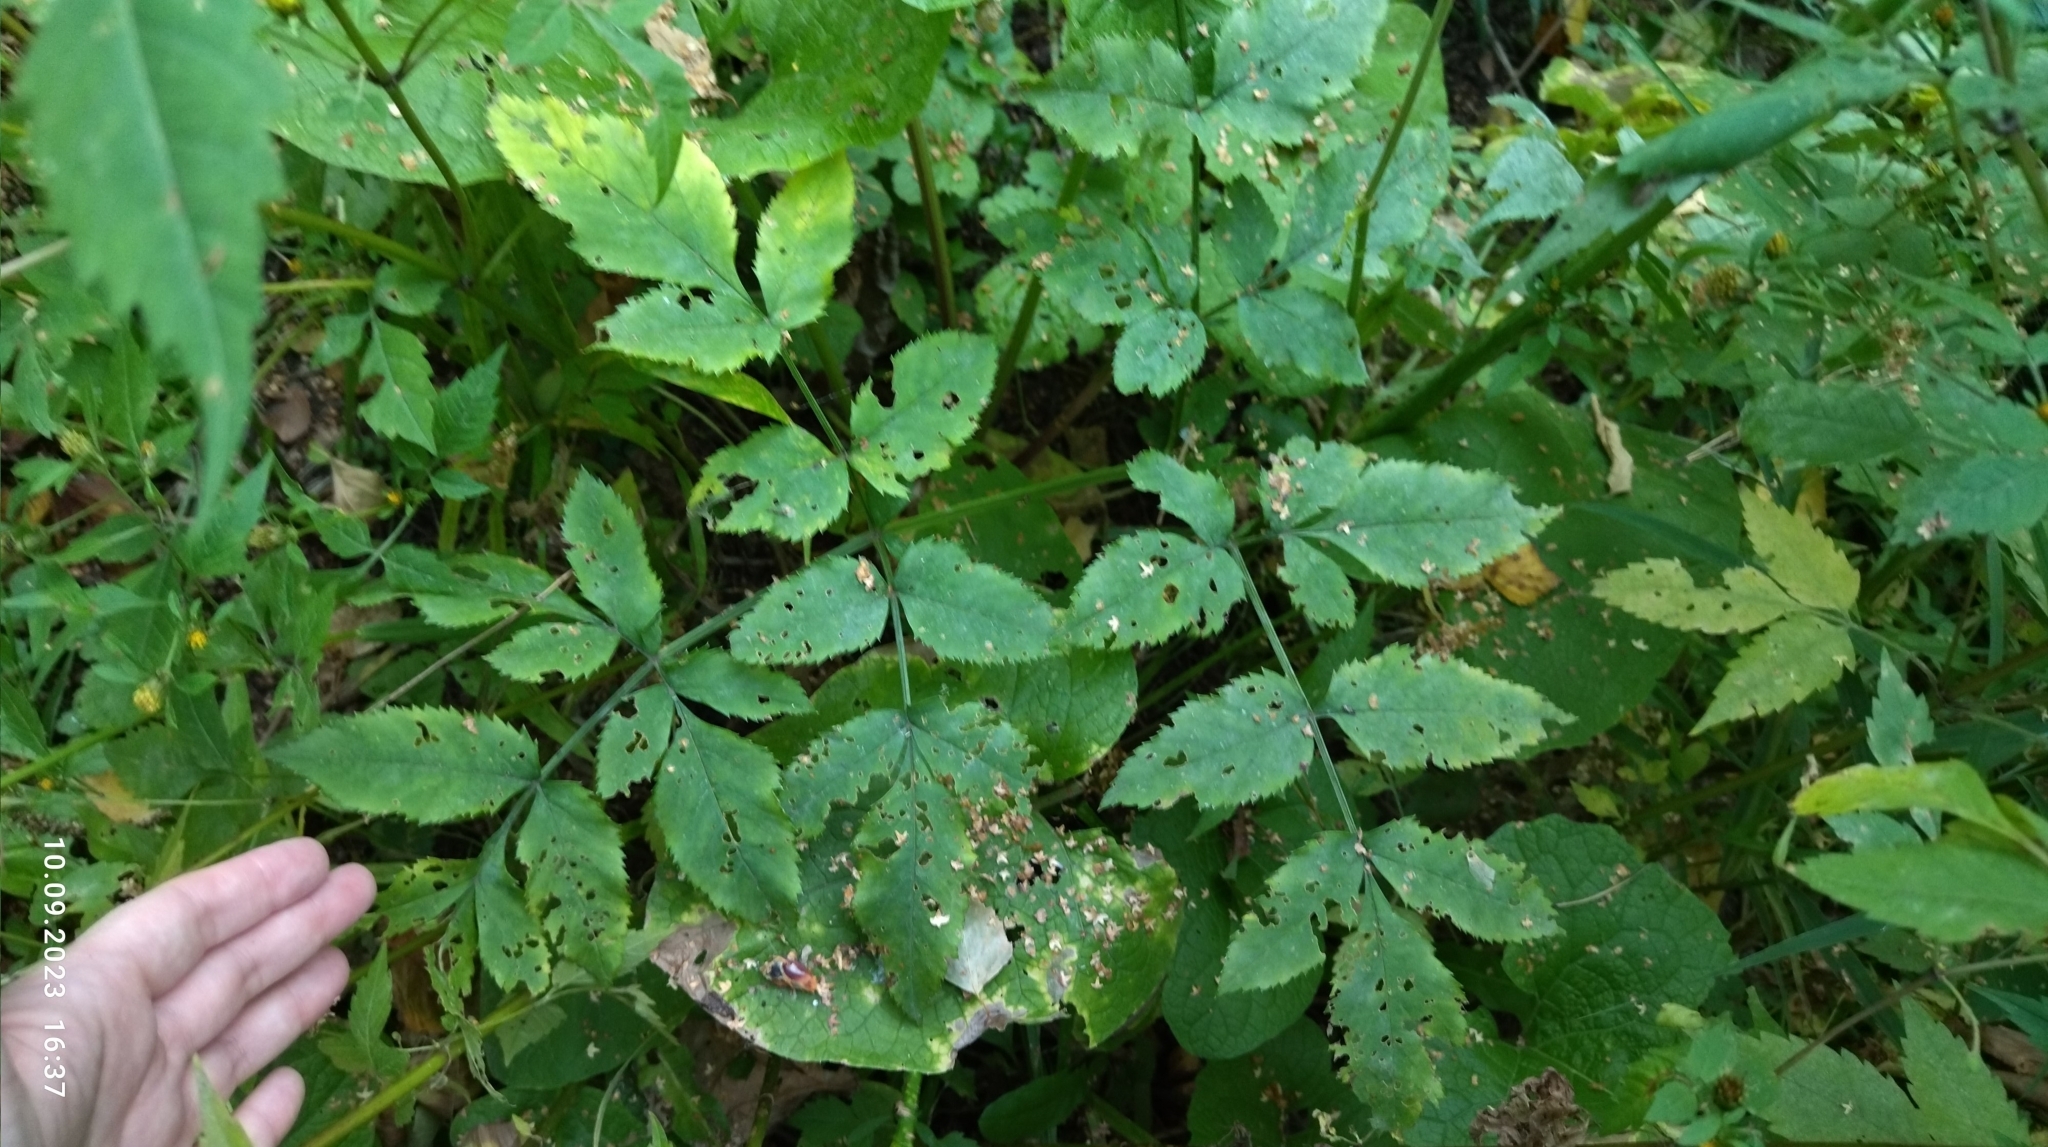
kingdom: Plantae
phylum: Tracheophyta
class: Magnoliopsida
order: Apiales
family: Apiaceae
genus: Angelica
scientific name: Angelica sylvestris
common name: Wild angelica
